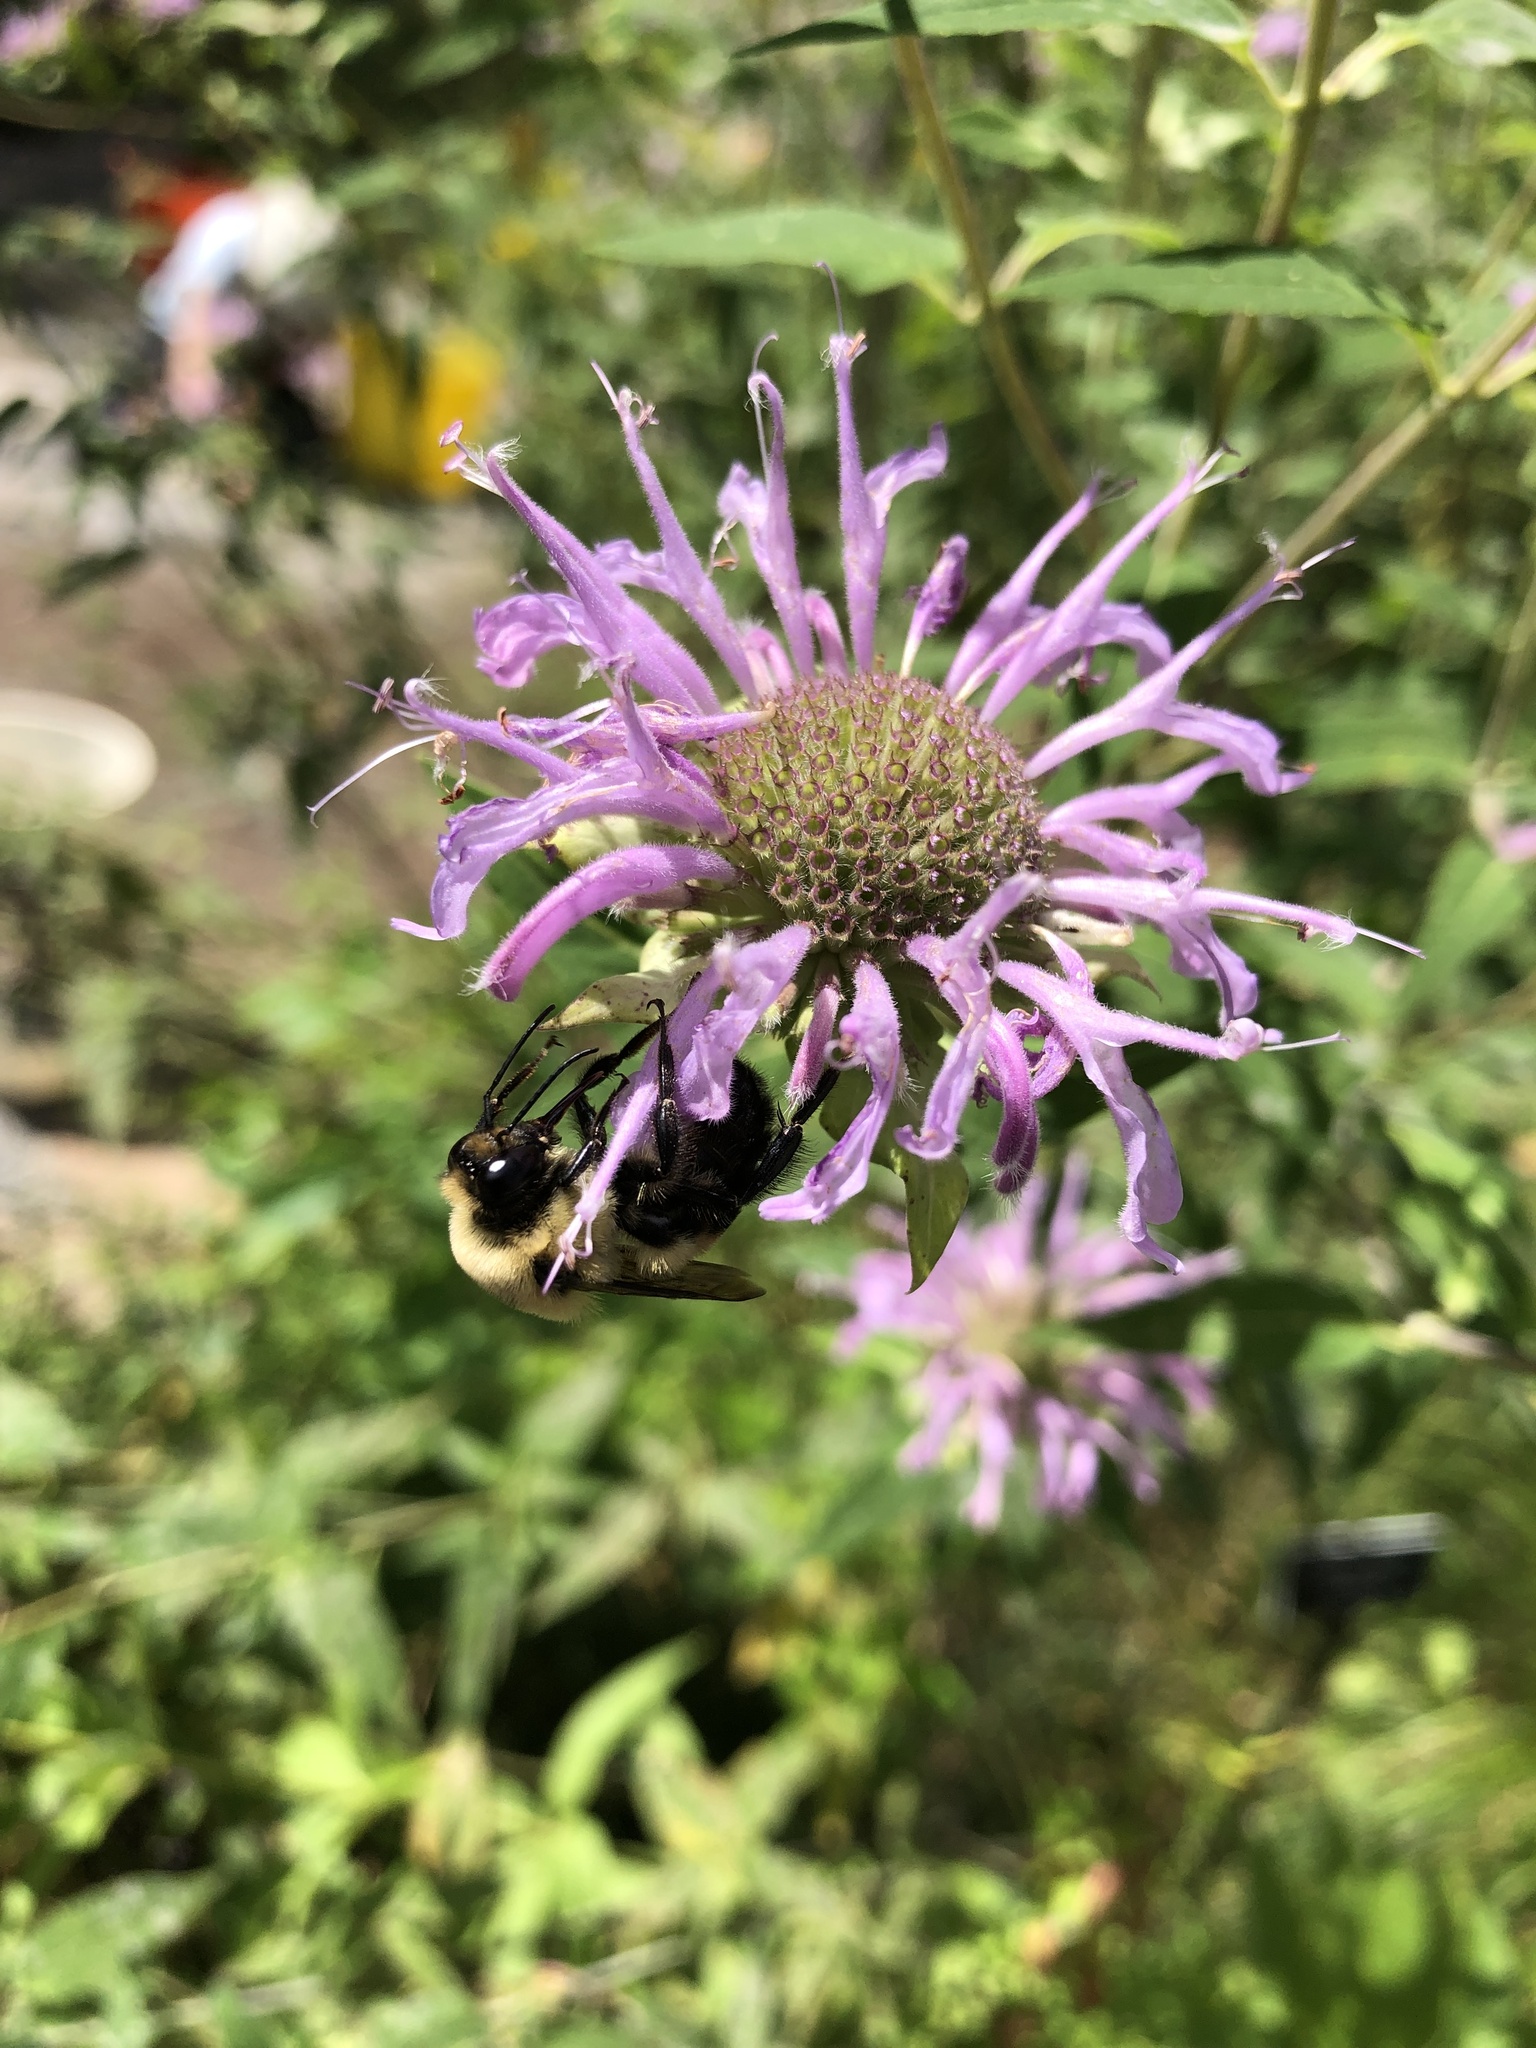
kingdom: Animalia
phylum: Arthropoda
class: Insecta
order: Hymenoptera
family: Apidae
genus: Bombus
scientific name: Bombus griseocollis
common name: Brown-belted bumble bee
